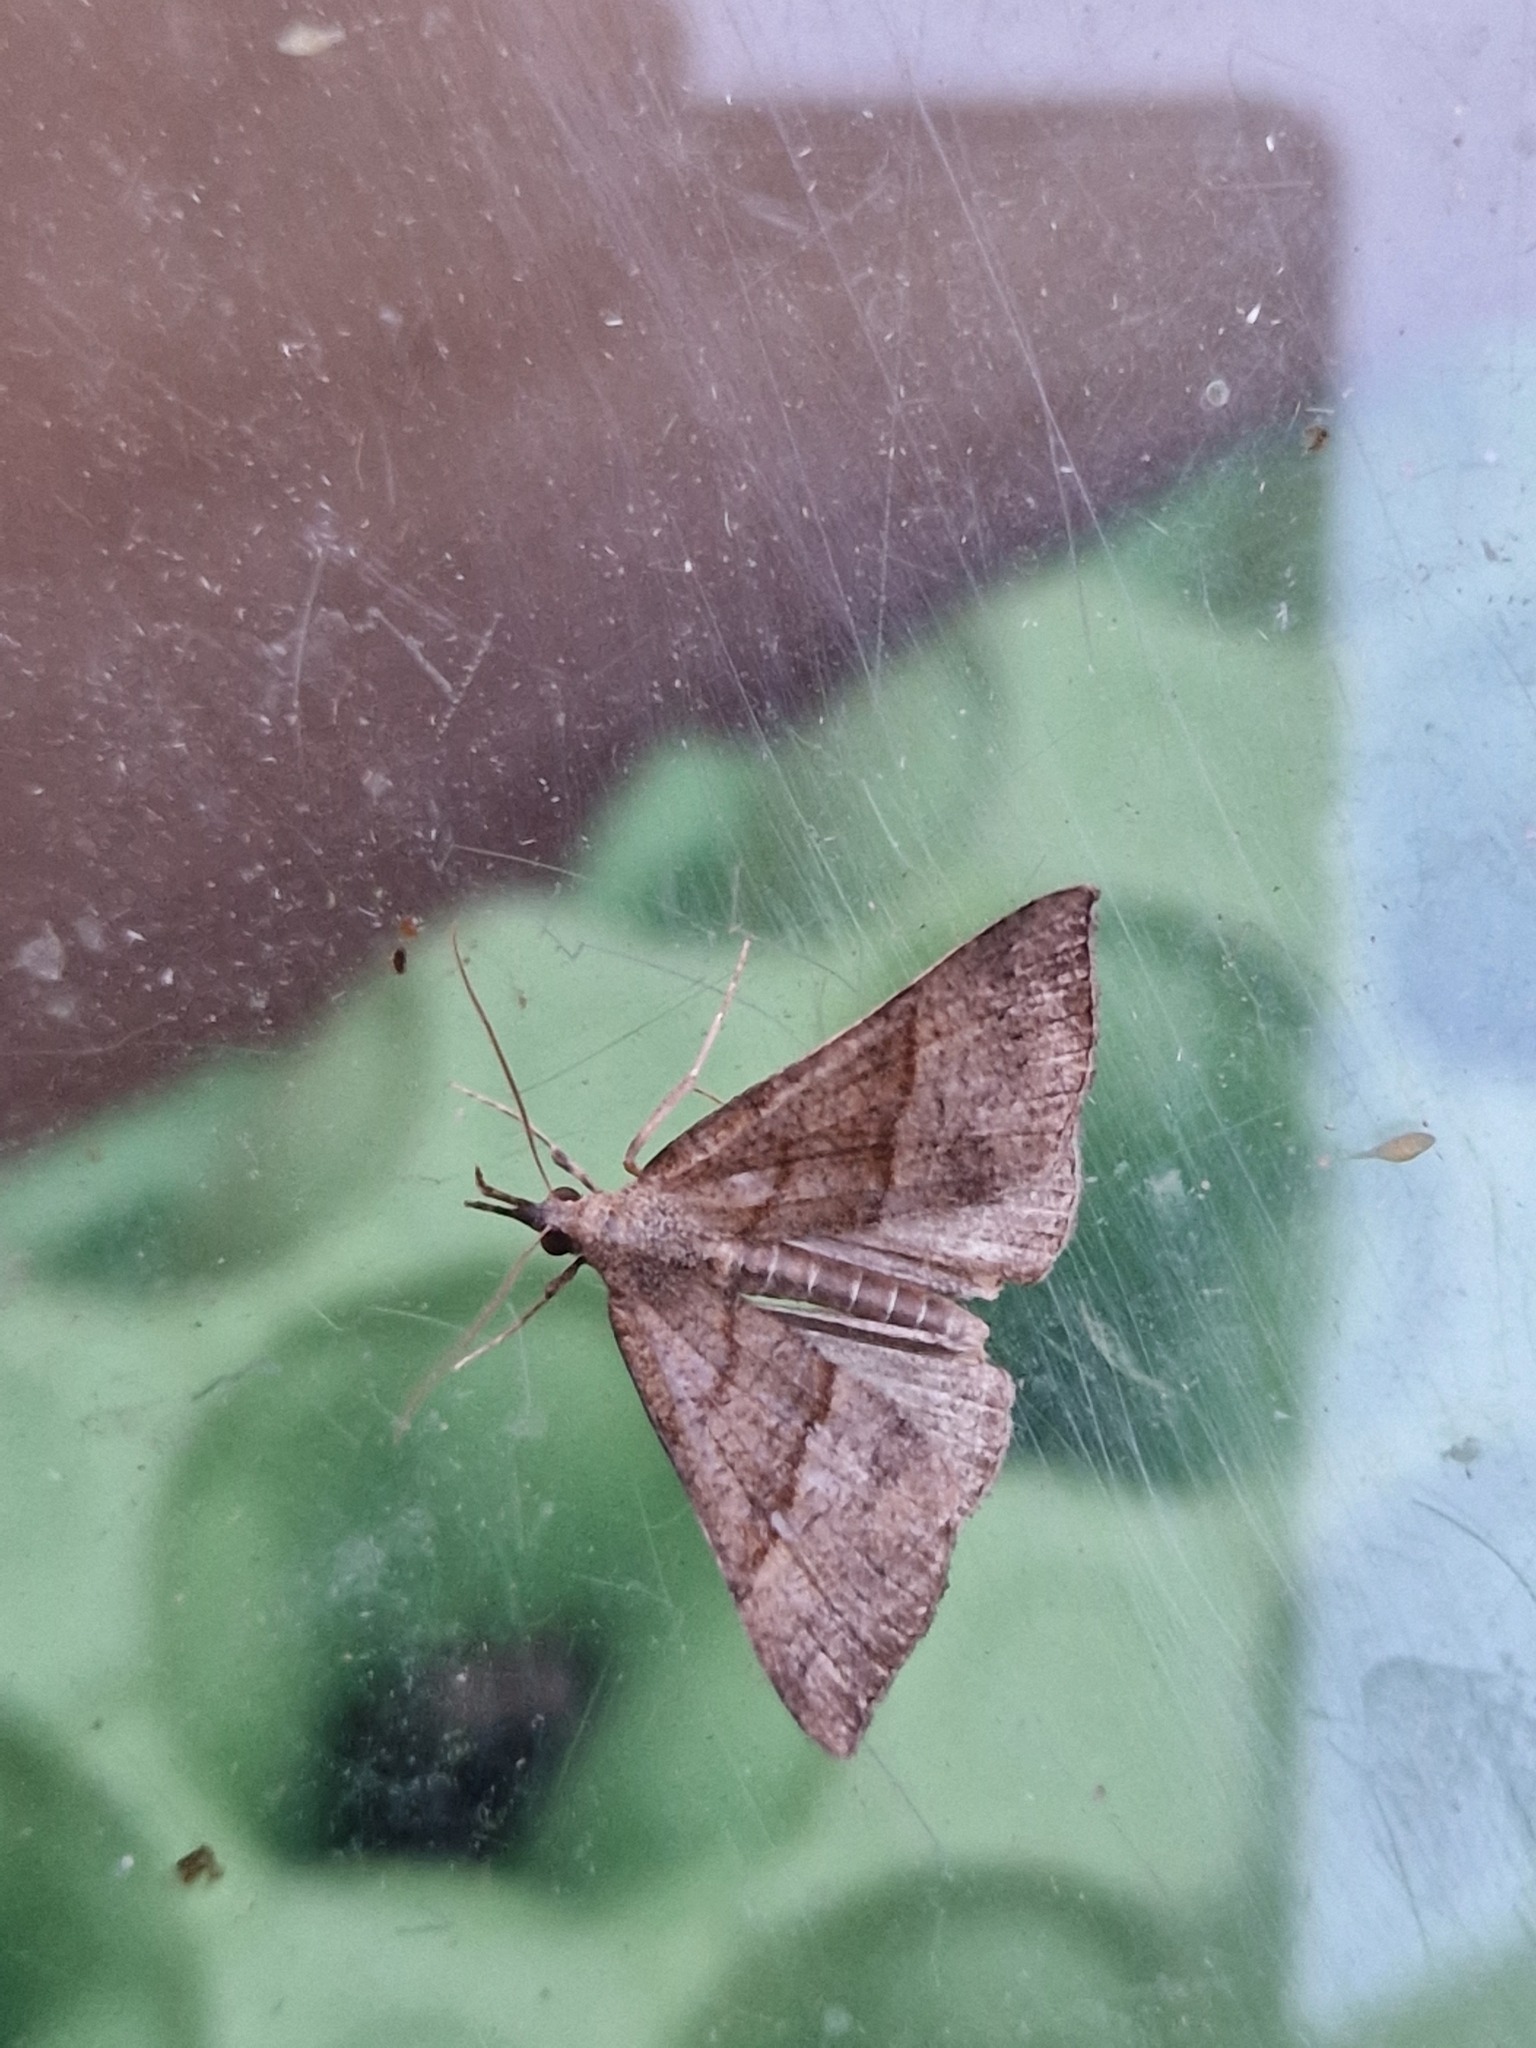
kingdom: Animalia
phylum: Arthropoda
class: Insecta
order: Lepidoptera
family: Erebidae
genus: Hypena
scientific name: Hypena proboscidalis
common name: Snout
